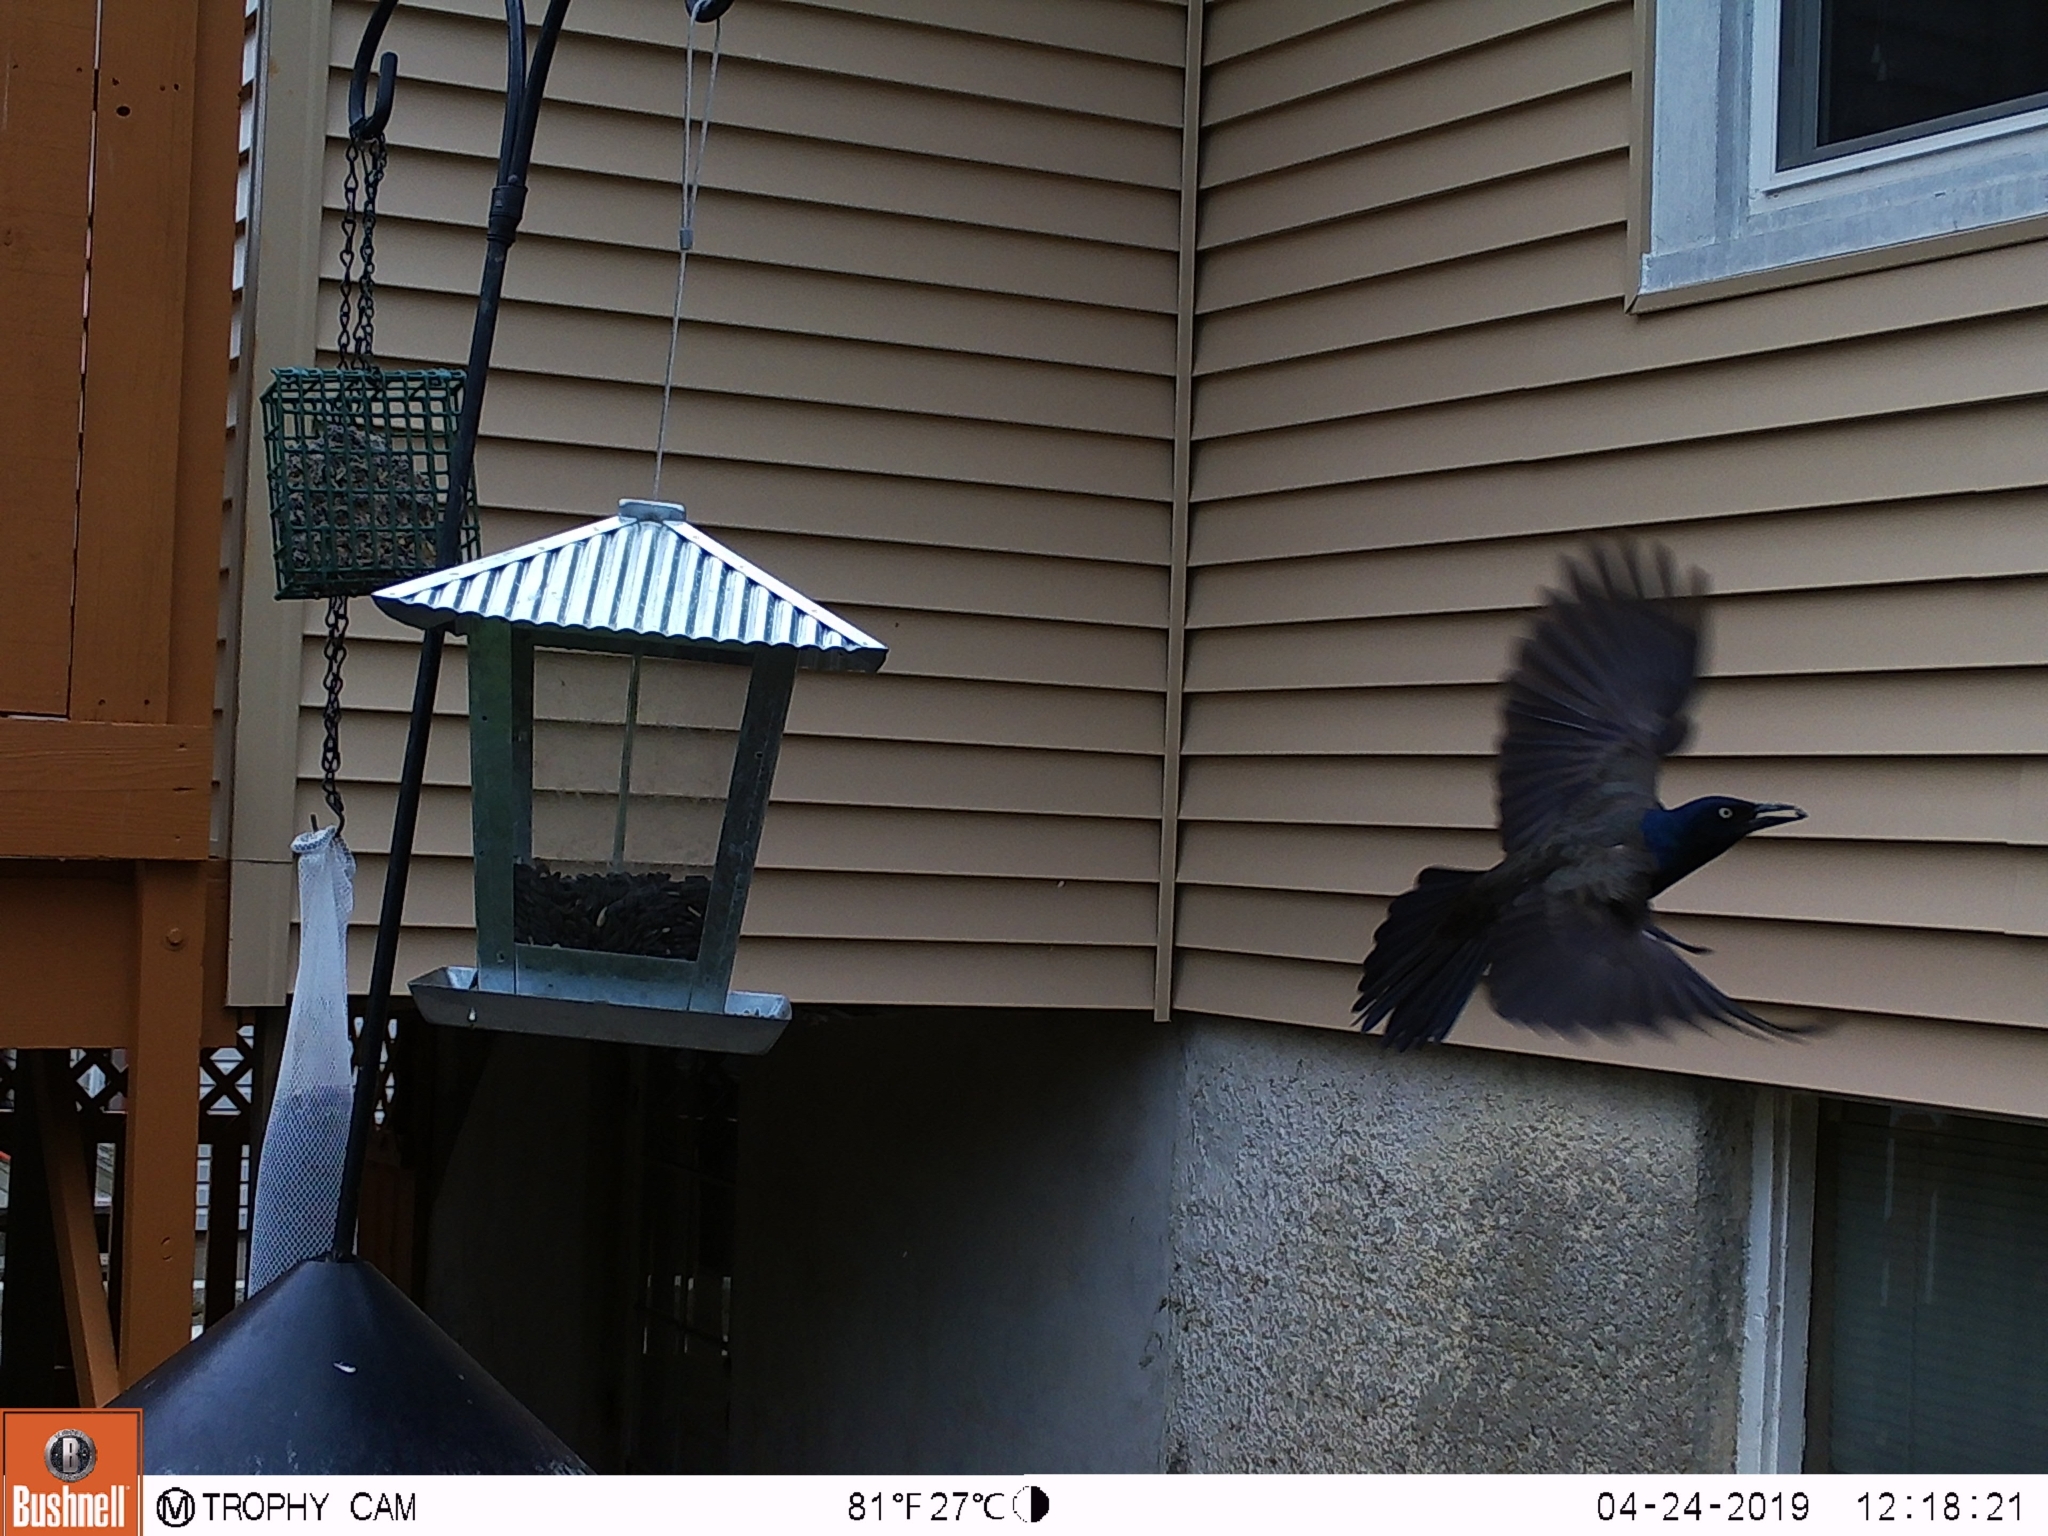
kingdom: Animalia
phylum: Chordata
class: Aves
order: Passeriformes
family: Icteridae
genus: Quiscalus
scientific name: Quiscalus quiscula
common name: Common grackle
